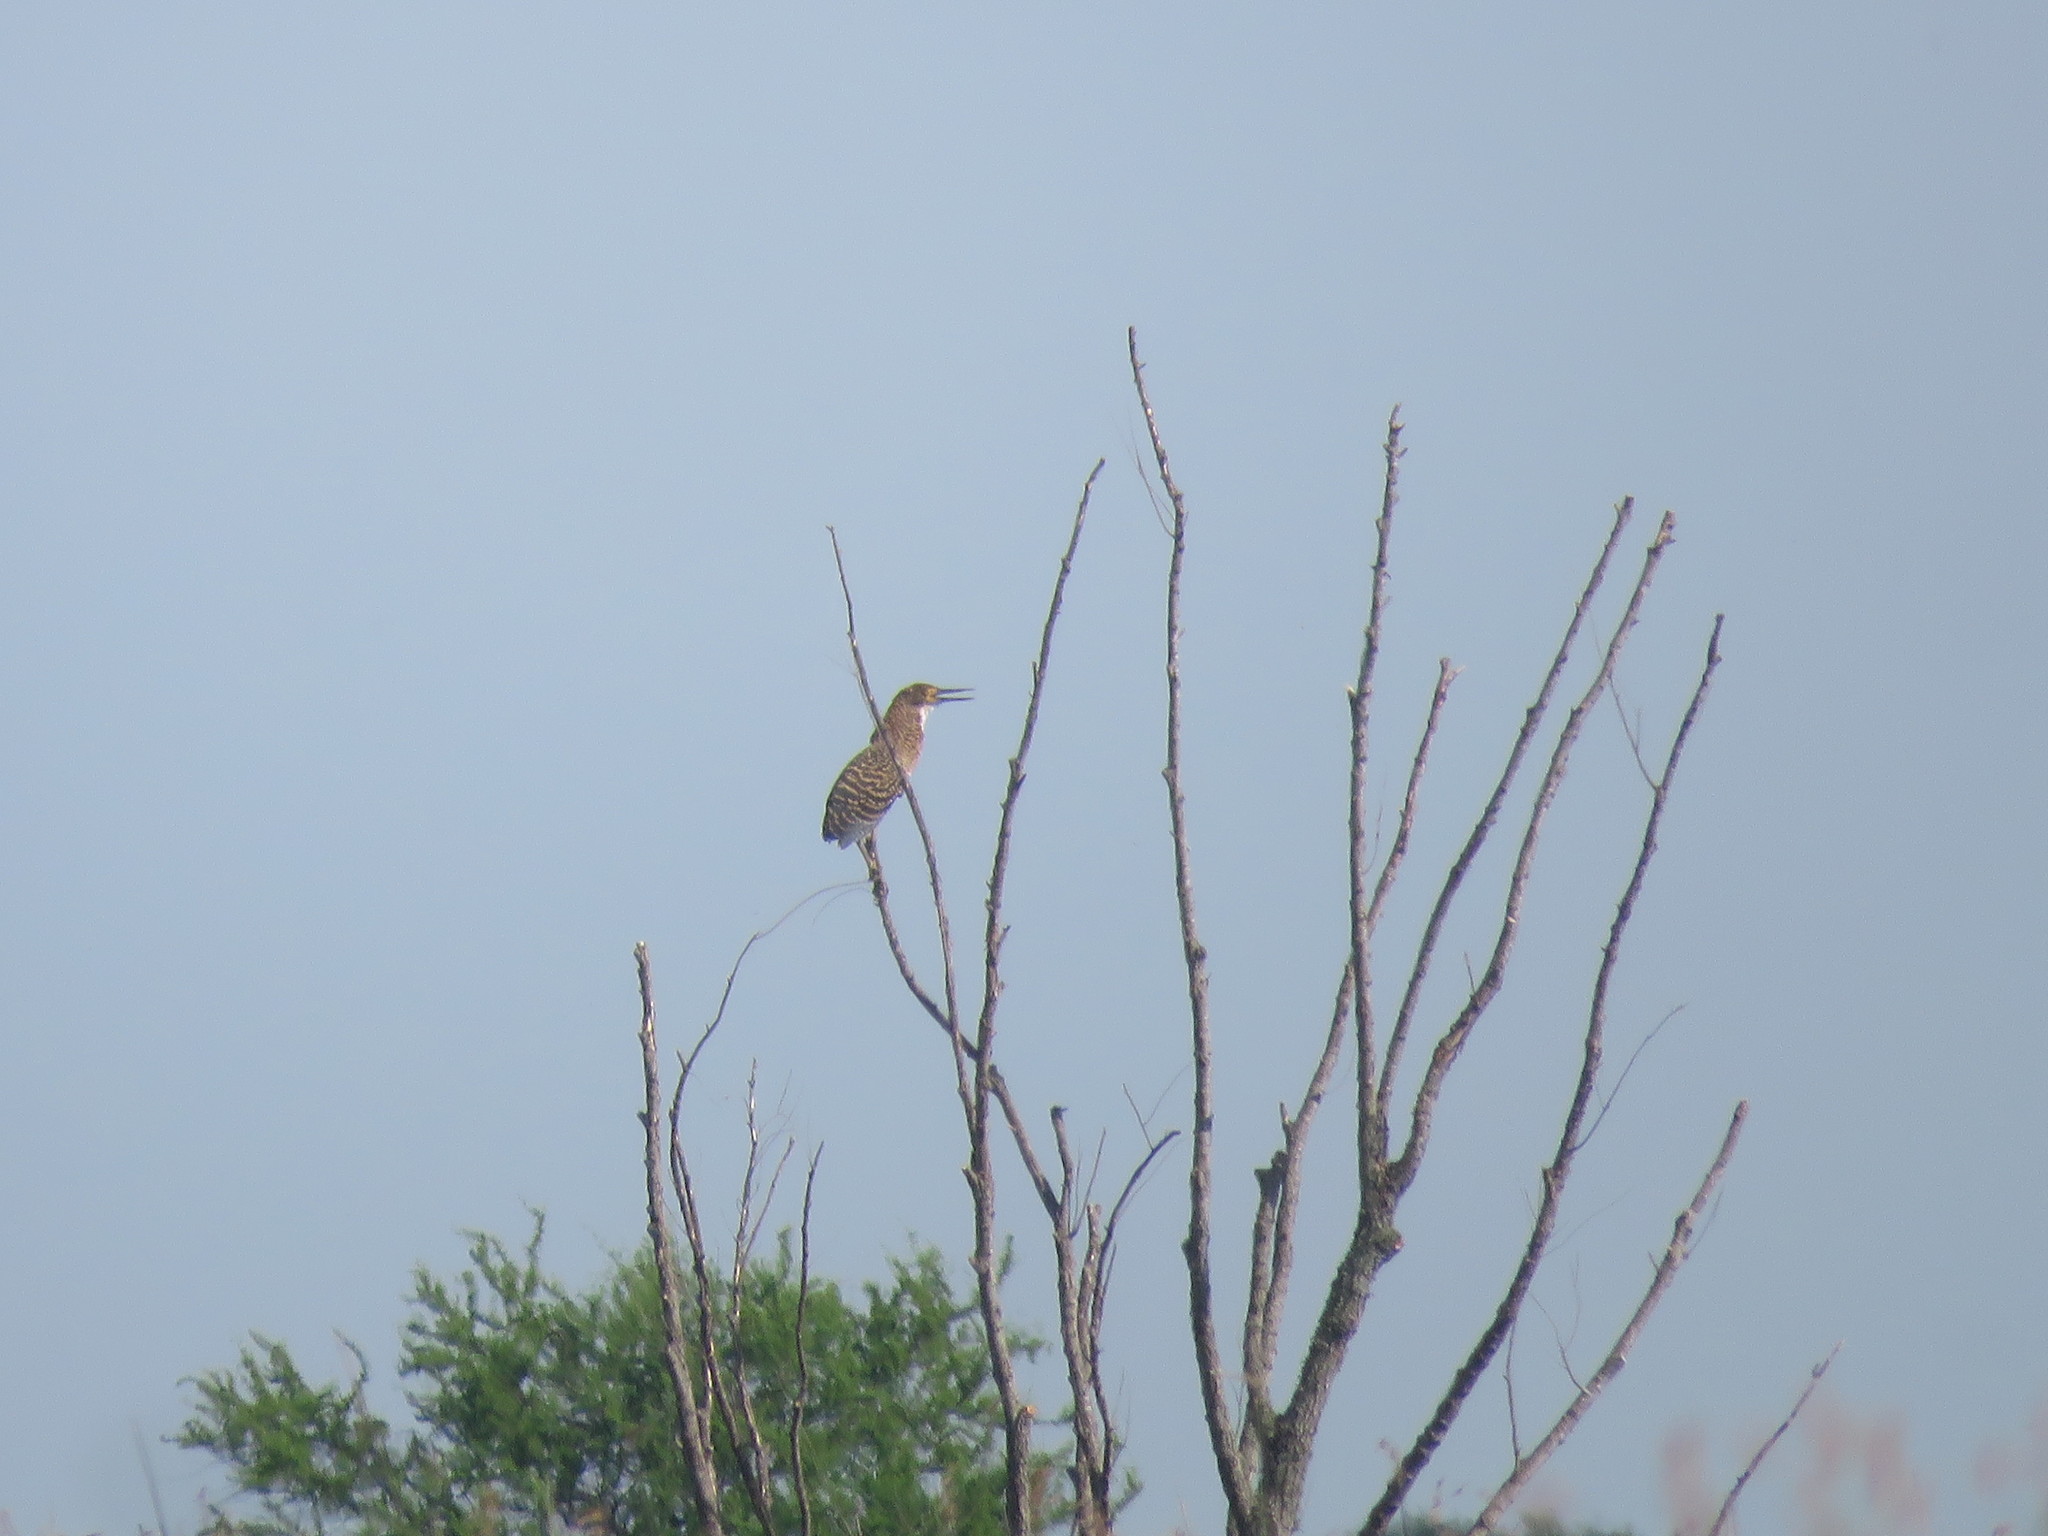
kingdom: Animalia
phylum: Chordata
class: Aves
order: Pelecaniformes
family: Ardeidae
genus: Tigrisoma
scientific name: Tigrisoma lineatum
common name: Rufescent tiger-heron
